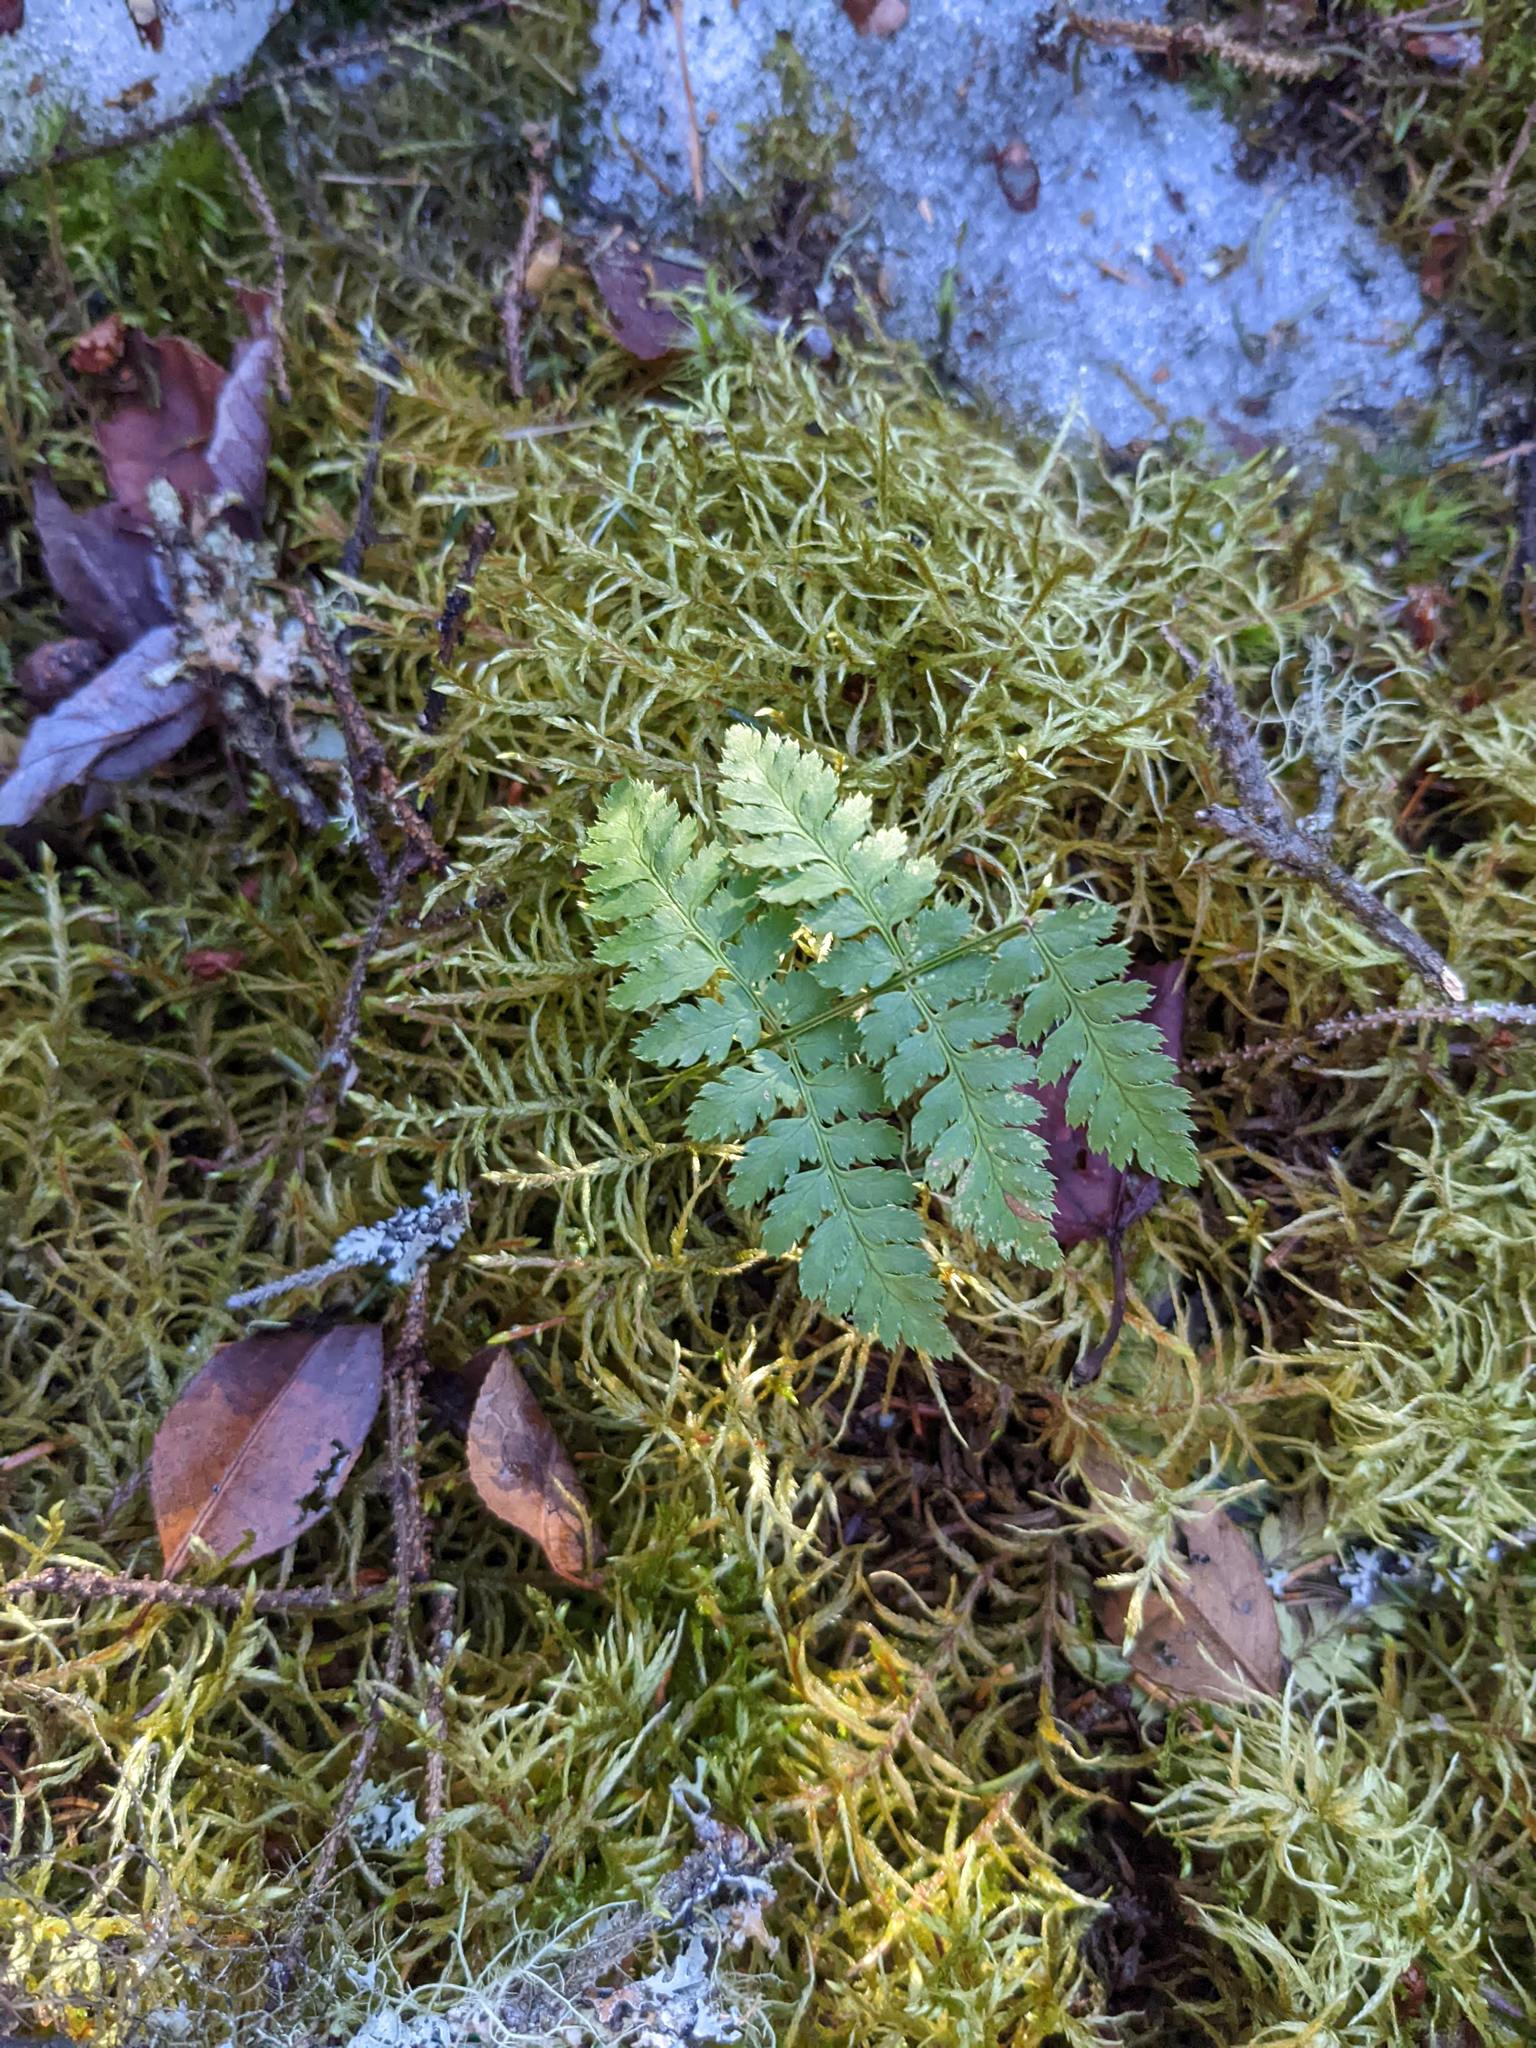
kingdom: Plantae
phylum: Tracheophyta
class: Polypodiopsida
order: Polypodiales
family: Dryopteridaceae
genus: Dryopteris
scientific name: Dryopteris intermedia
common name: Evergreen wood fern
